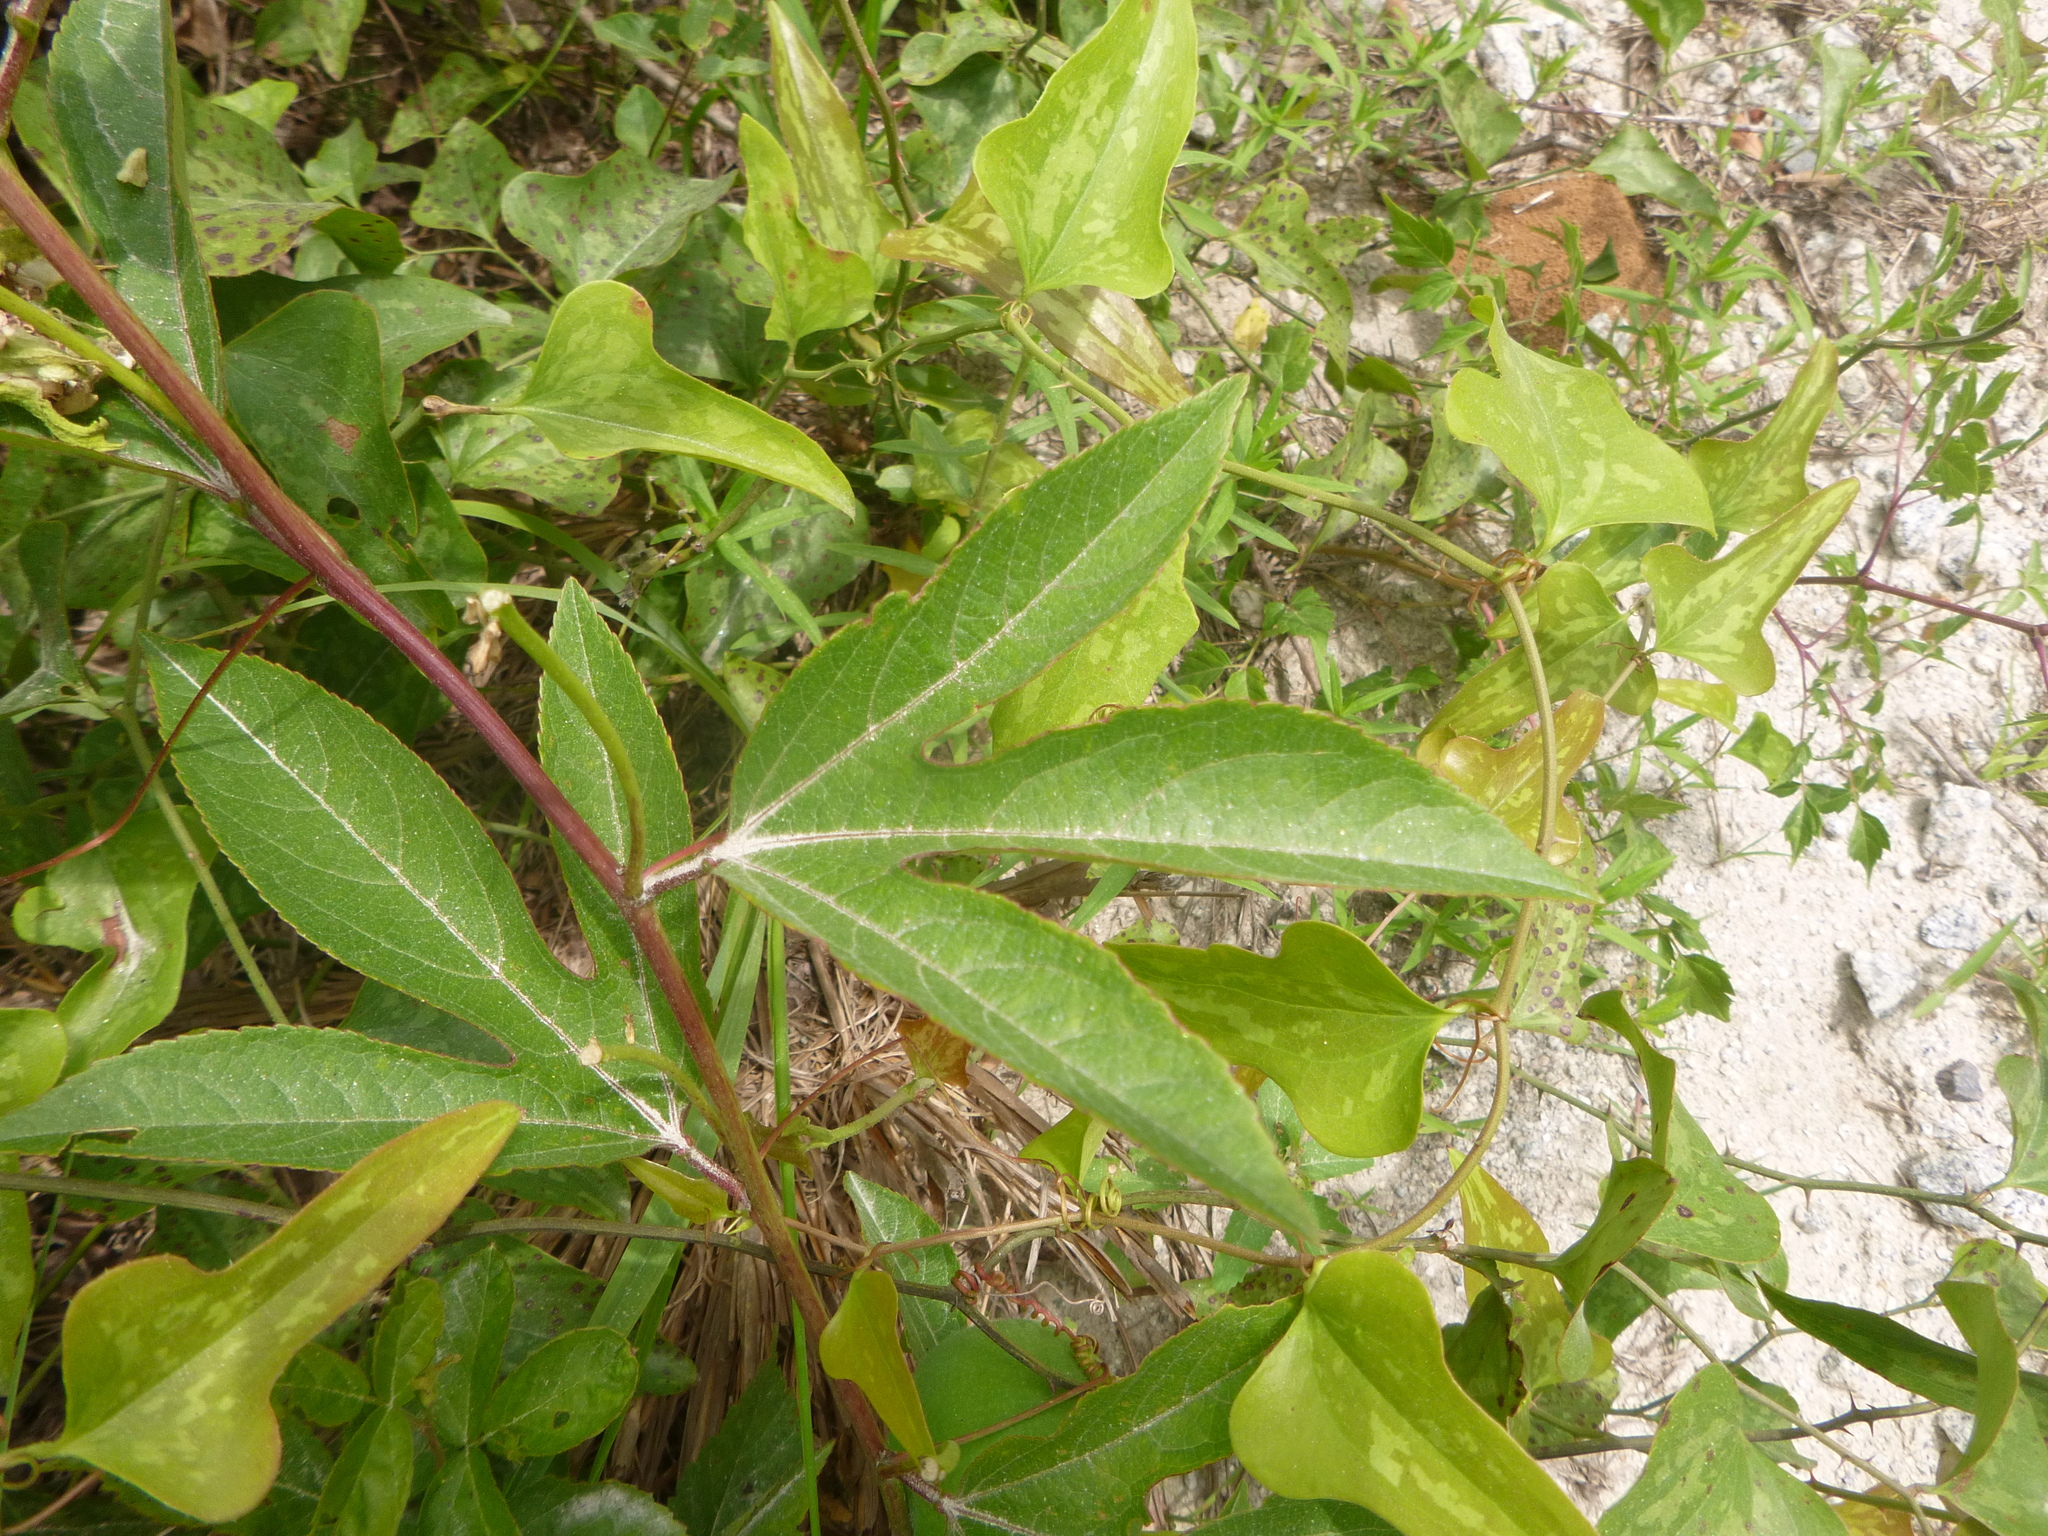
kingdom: Plantae
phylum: Tracheophyta
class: Magnoliopsida
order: Malpighiales
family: Passifloraceae
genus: Passiflora
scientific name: Passiflora incarnata
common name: Apricot-vine
